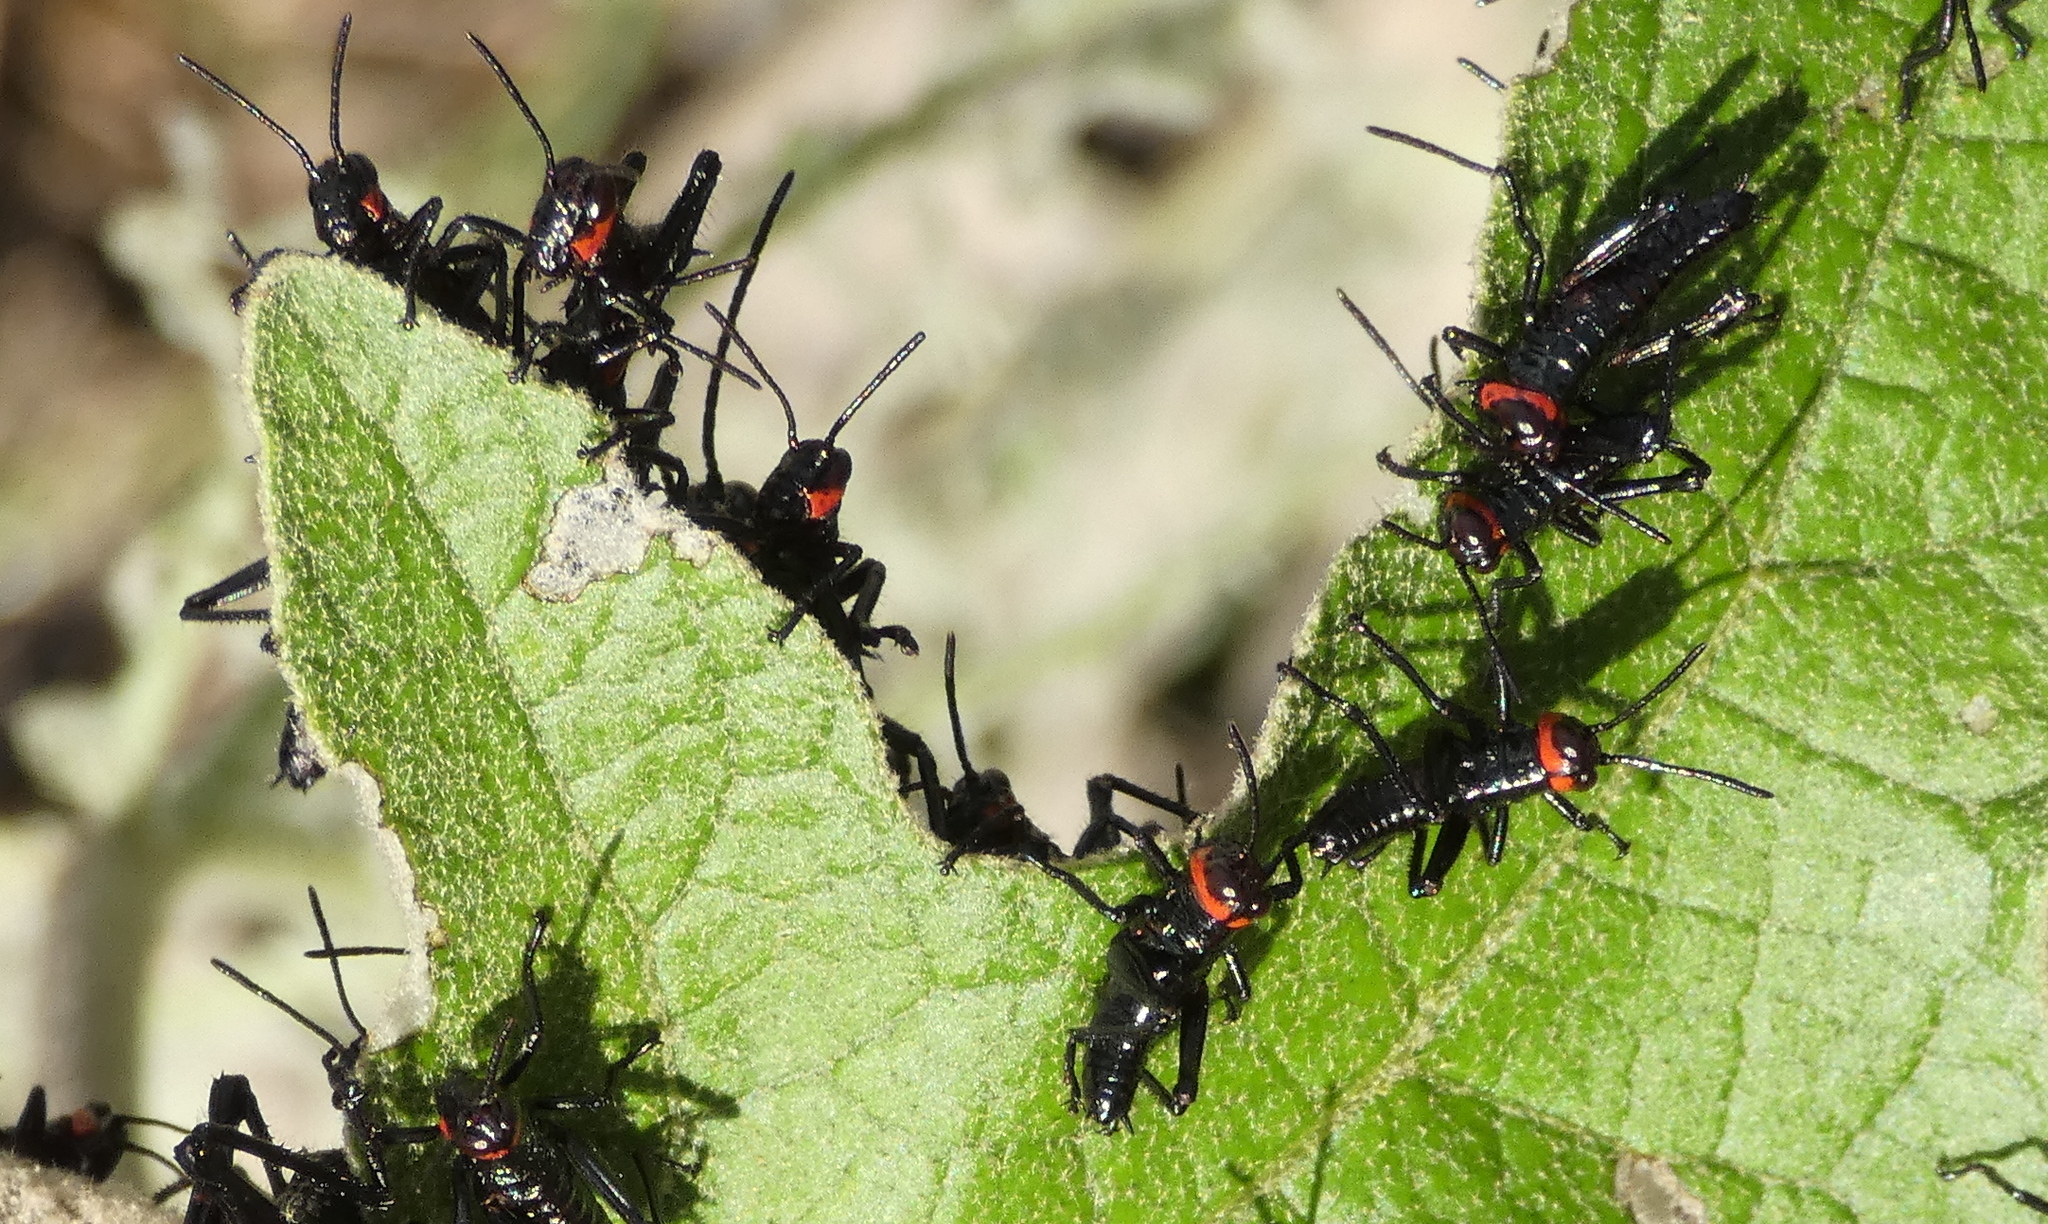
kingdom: Animalia
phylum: Arthropoda
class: Insecta
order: Orthoptera
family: Romaleidae
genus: Chromacris
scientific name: Chromacris speciosa
